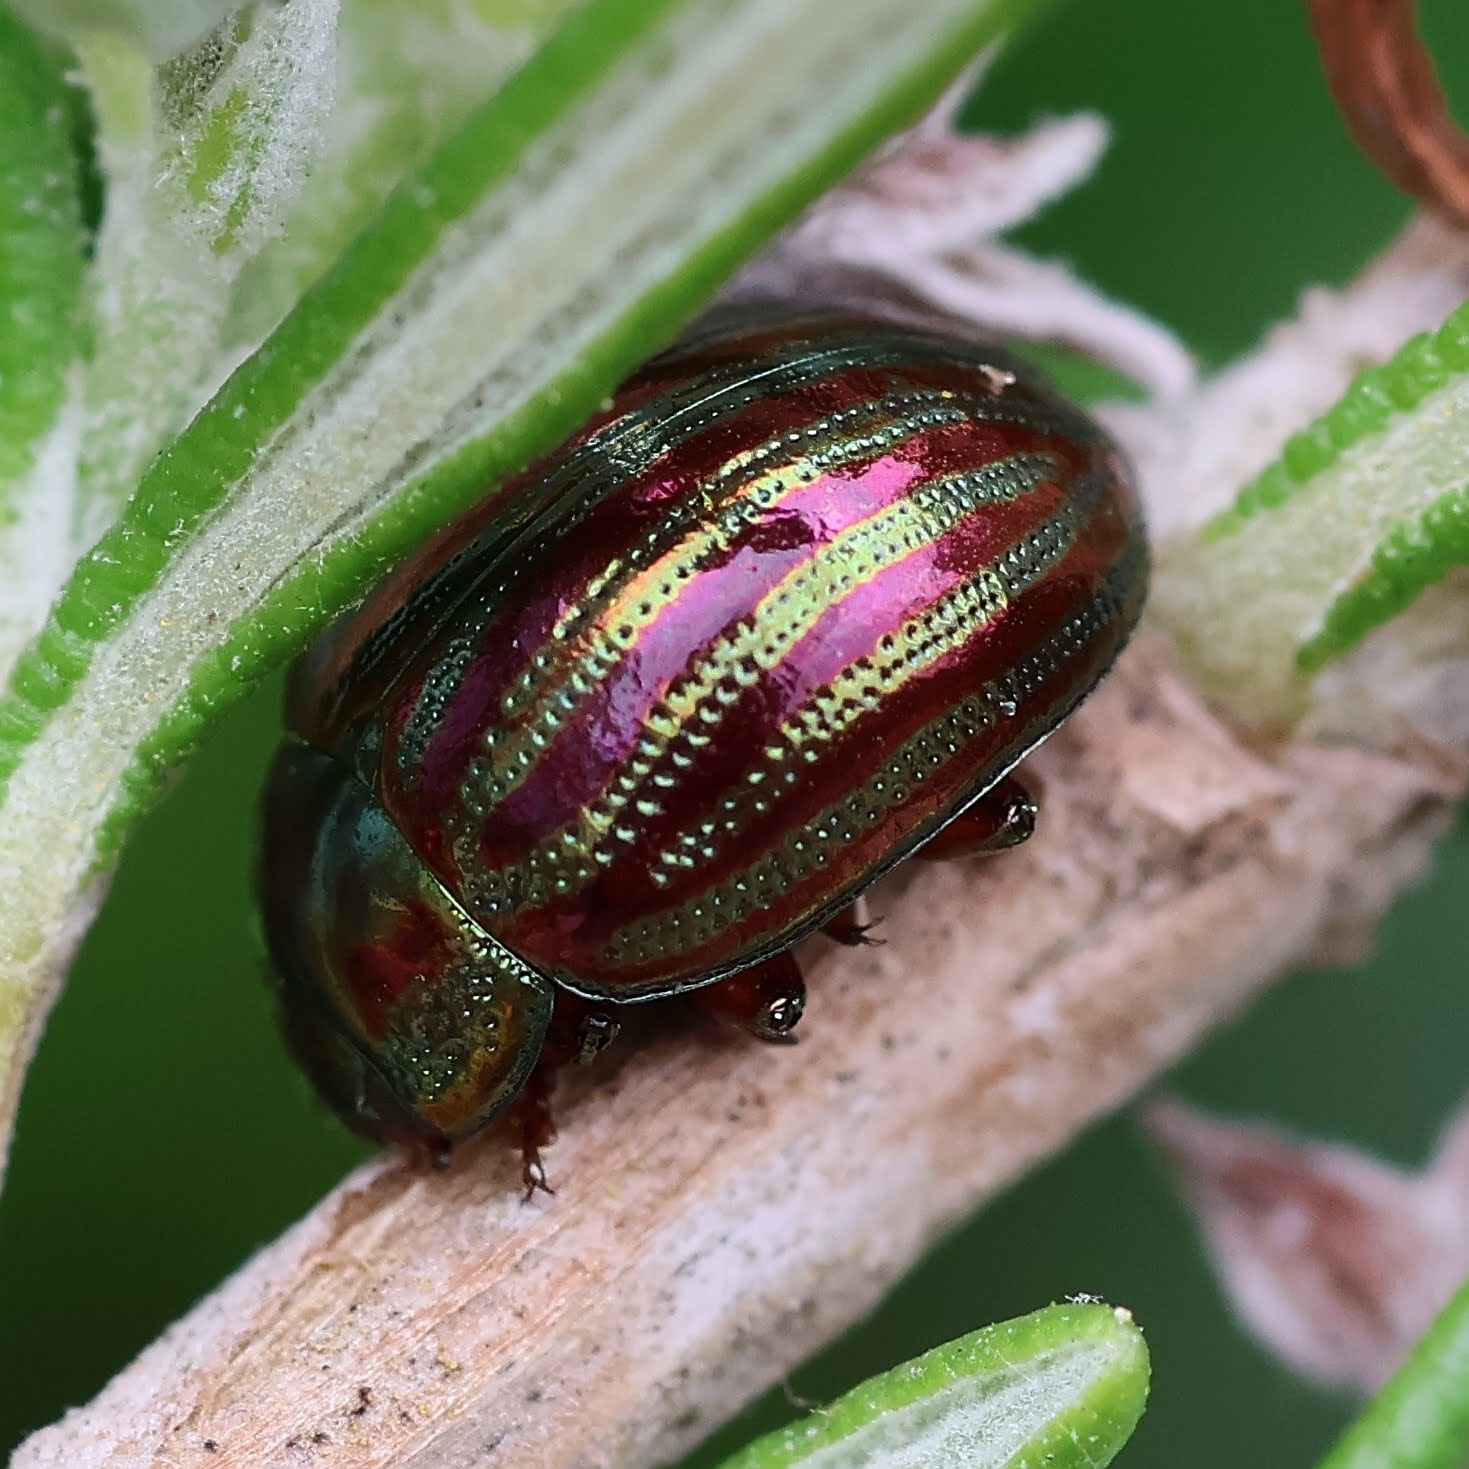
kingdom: Animalia
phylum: Arthropoda
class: Insecta
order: Coleoptera
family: Chrysomelidae
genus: Chrysolina
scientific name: Chrysolina americana
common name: Rosemary beetle
